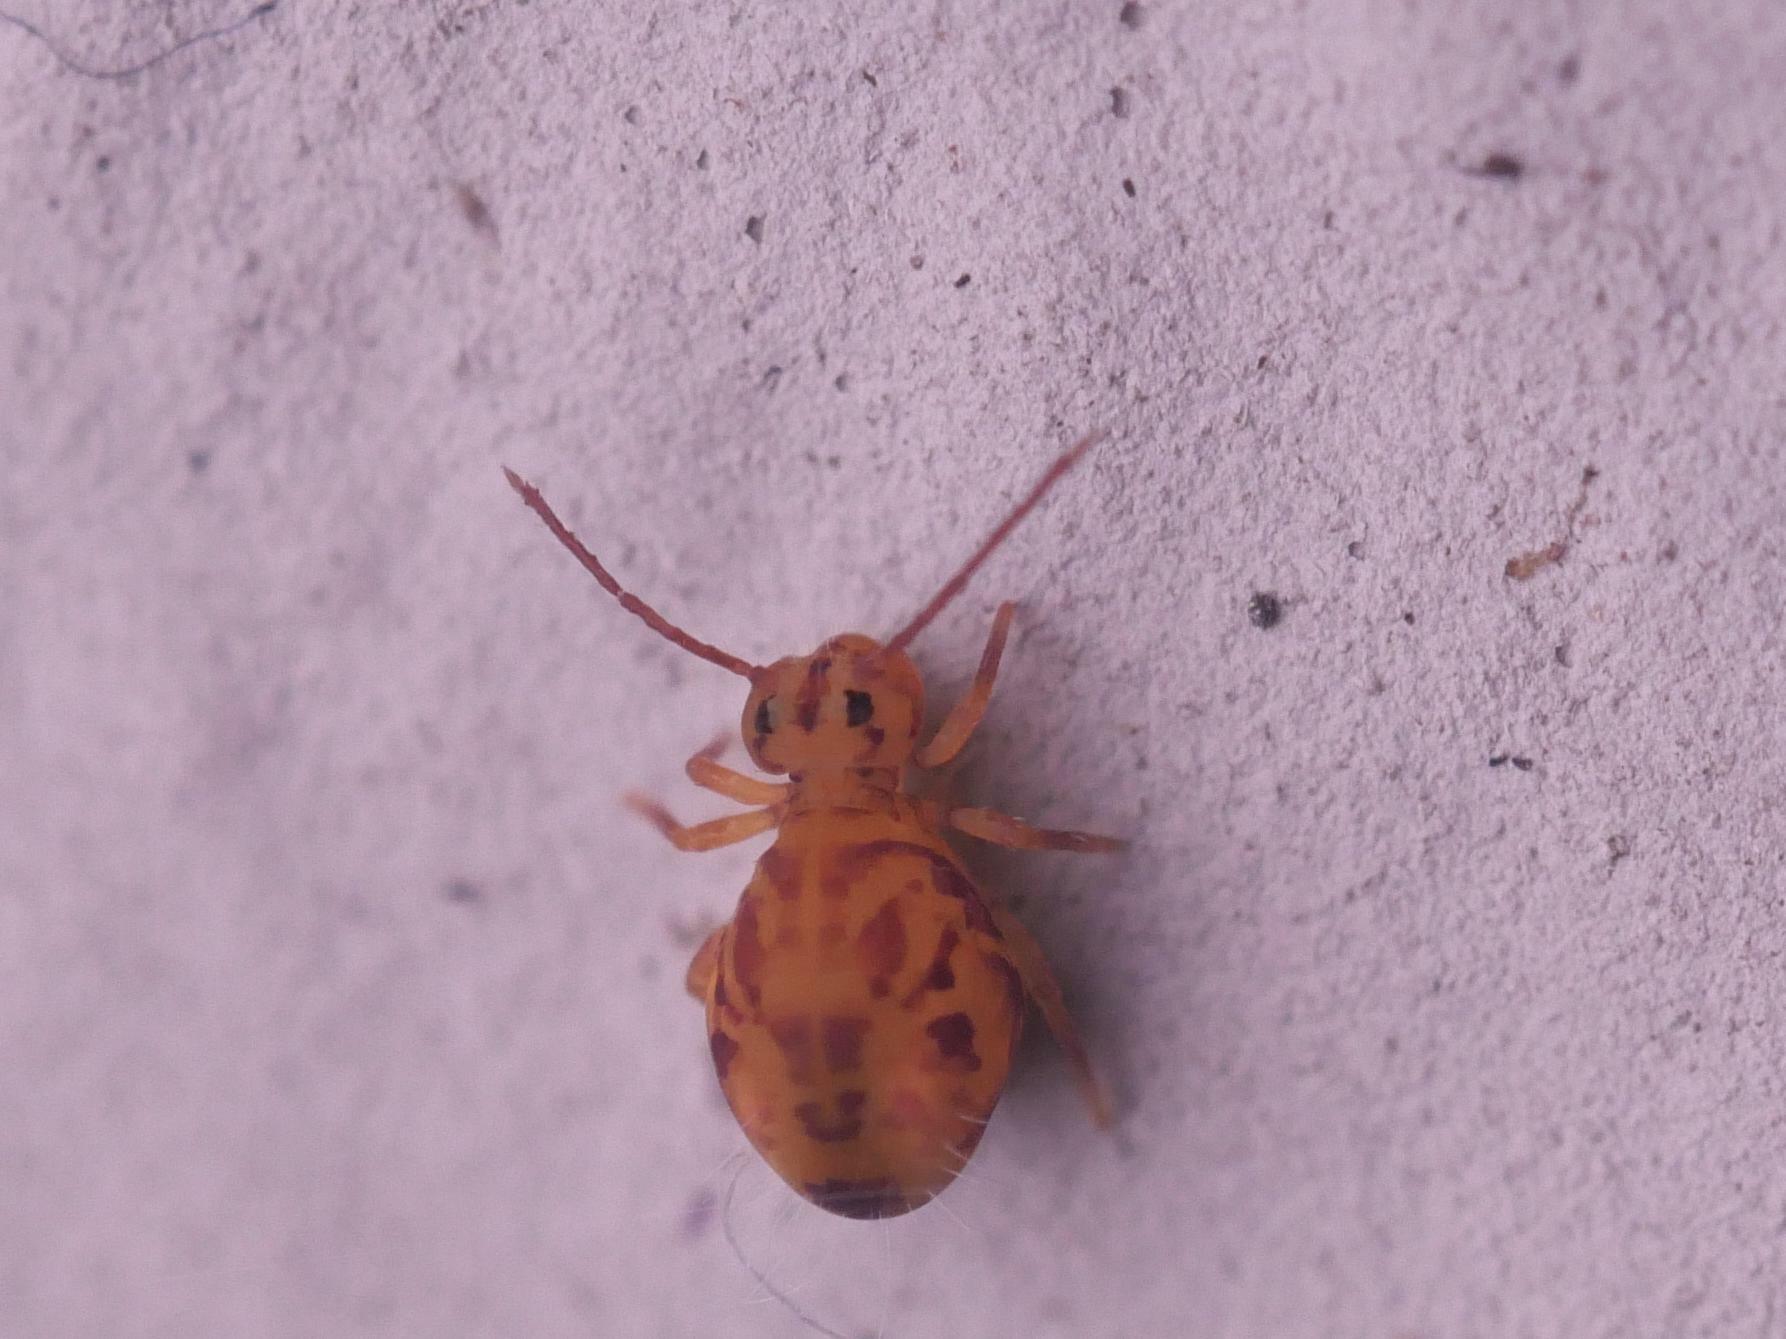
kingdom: Animalia
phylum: Arthropoda
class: Collembola
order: Symphypleona
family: Dicyrtomidae
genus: Dicyrtomina
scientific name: Dicyrtomina ornata
